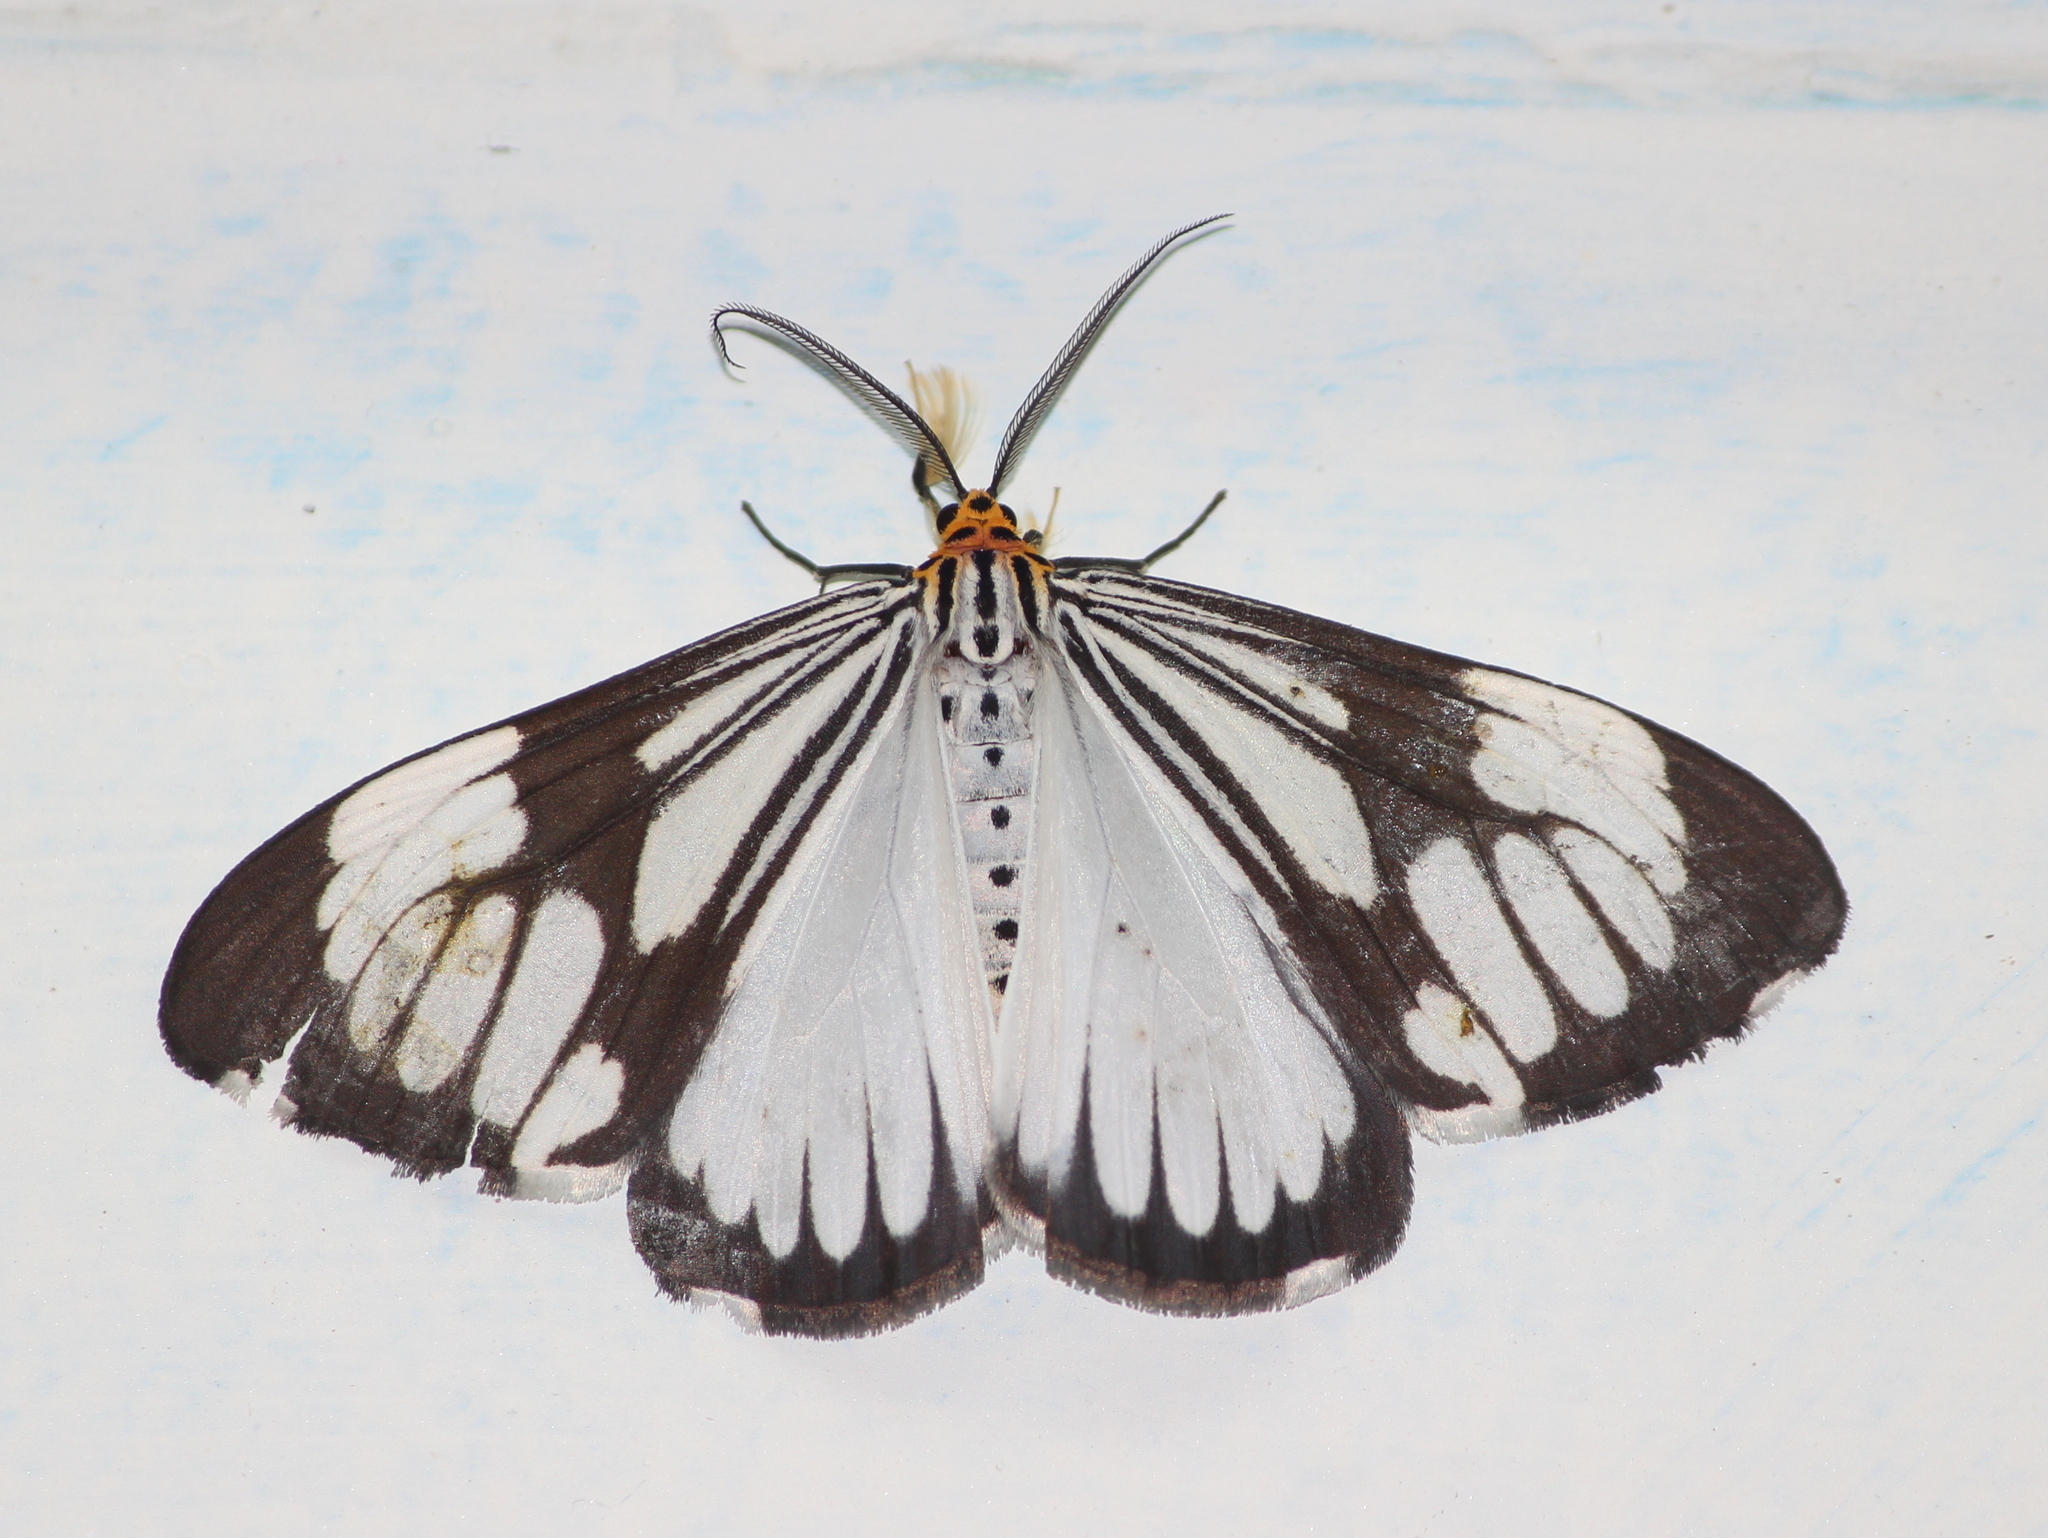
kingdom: Animalia
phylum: Arthropoda
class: Insecta
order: Lepidoptera
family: Erebidae
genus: Nyctemera
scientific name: Nyctemera coleta
